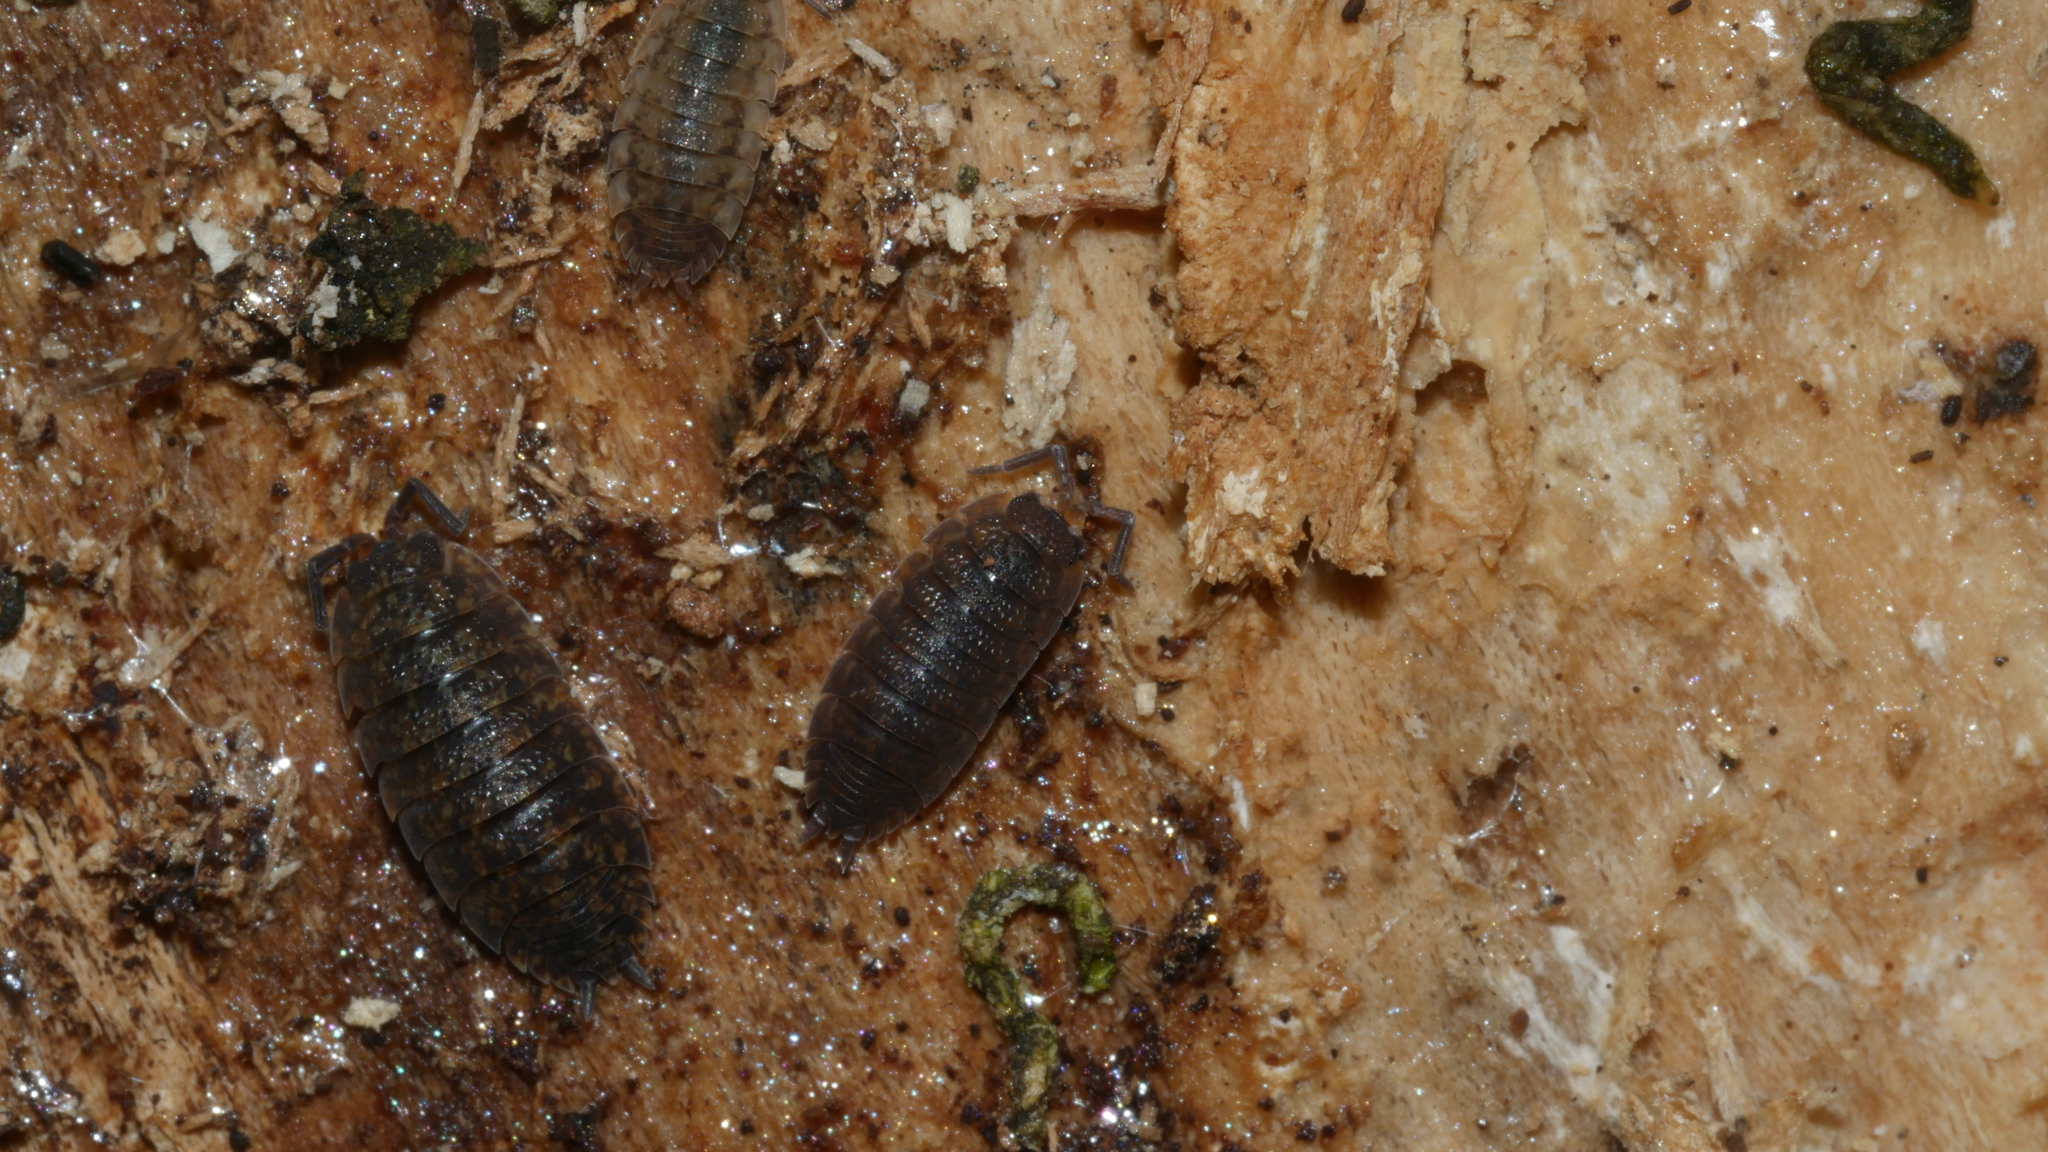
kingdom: Animalia
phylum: Arthropoda
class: Malacostraca
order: Isopoda
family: Porcellionidae
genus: Porcellio
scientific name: Porcellio scaber
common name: Common rough woodlouse
